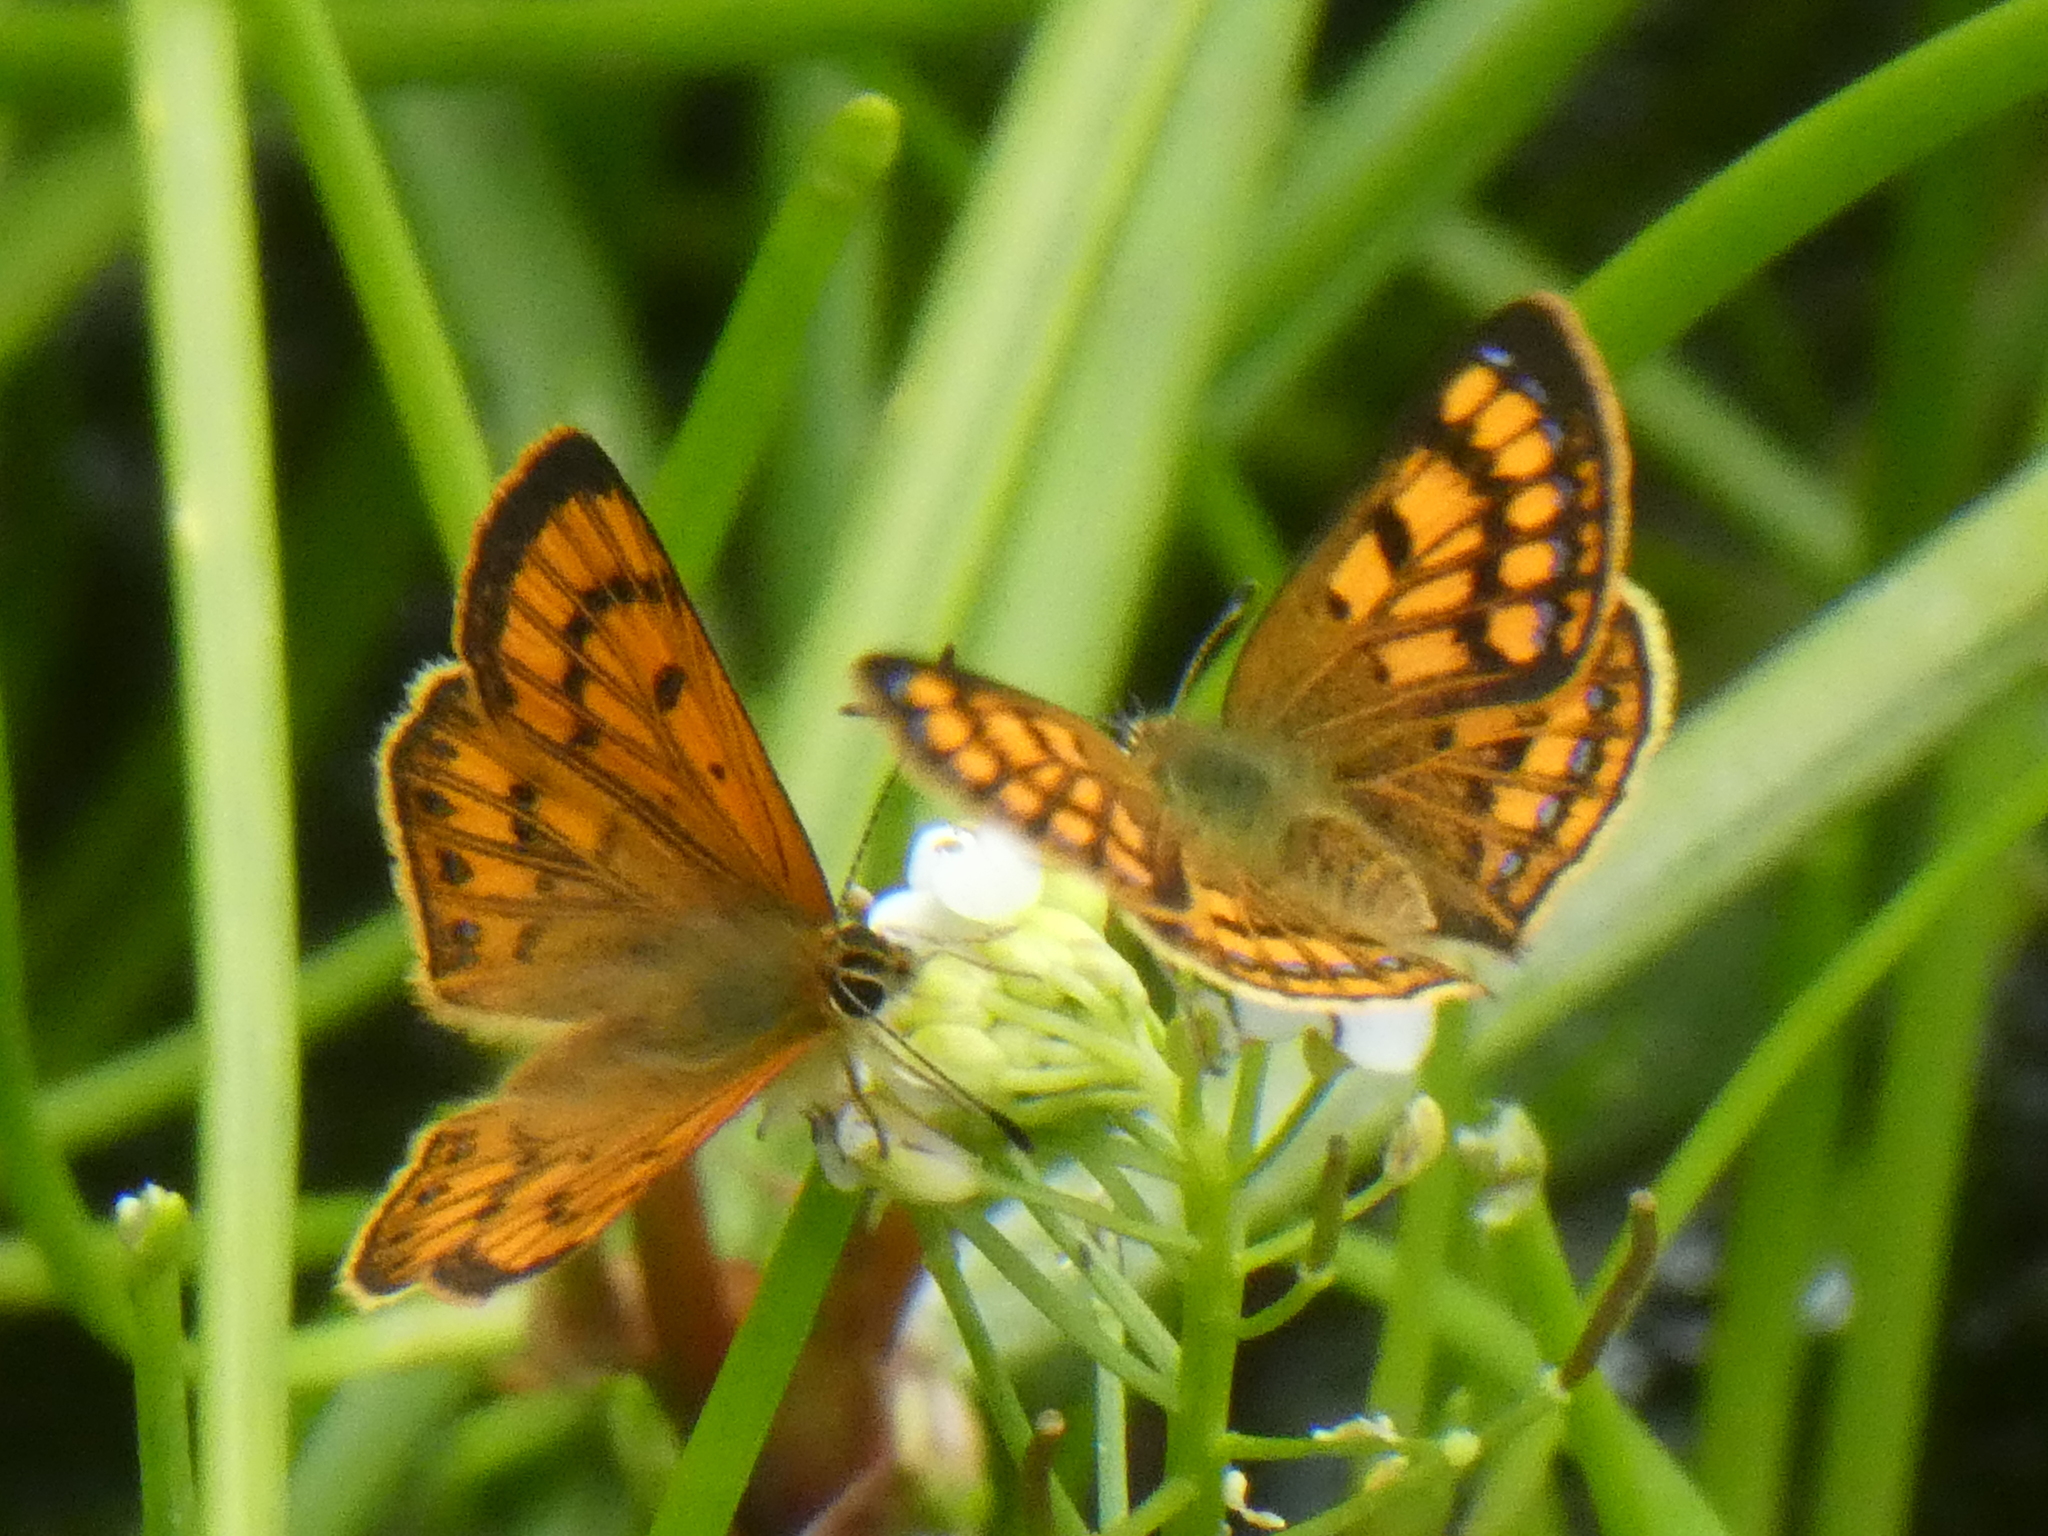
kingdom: Animalia
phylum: Arthropoda
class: Insecta
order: Lepidoptera
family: Lycaenidae
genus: Lycaena
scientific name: Lycaena salustius
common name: North island coastal copper
